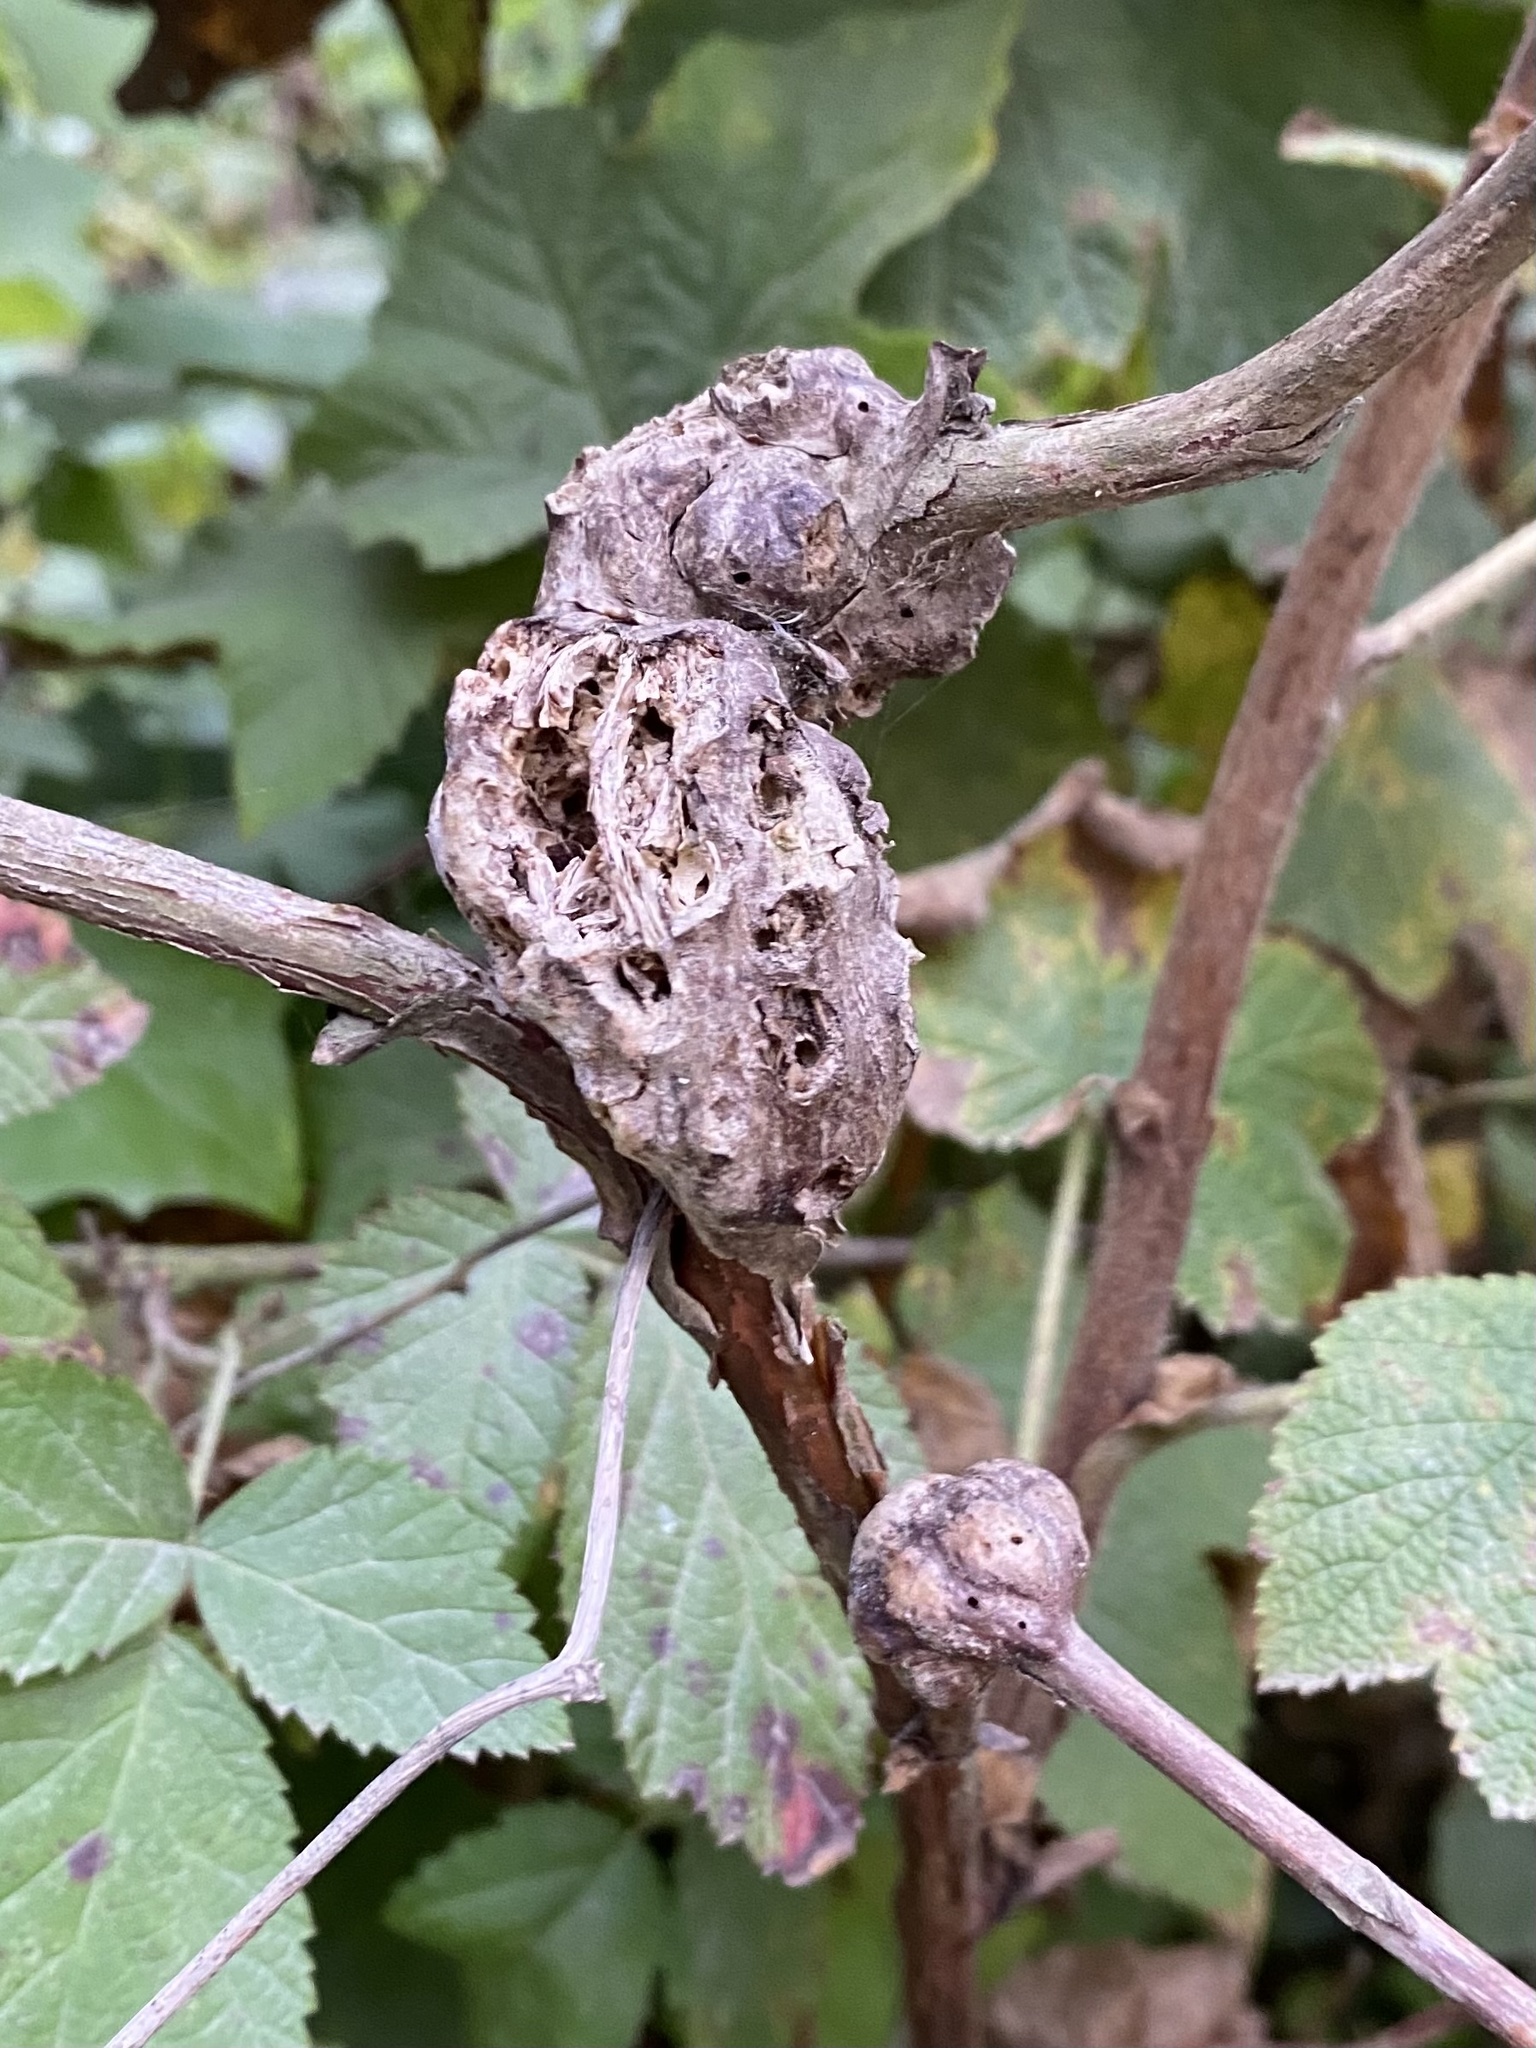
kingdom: Animalia
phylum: Arthropoda
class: Insecta
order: Hymenoptera
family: Cynipidae
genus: Diastrophus
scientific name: Diastrophus
